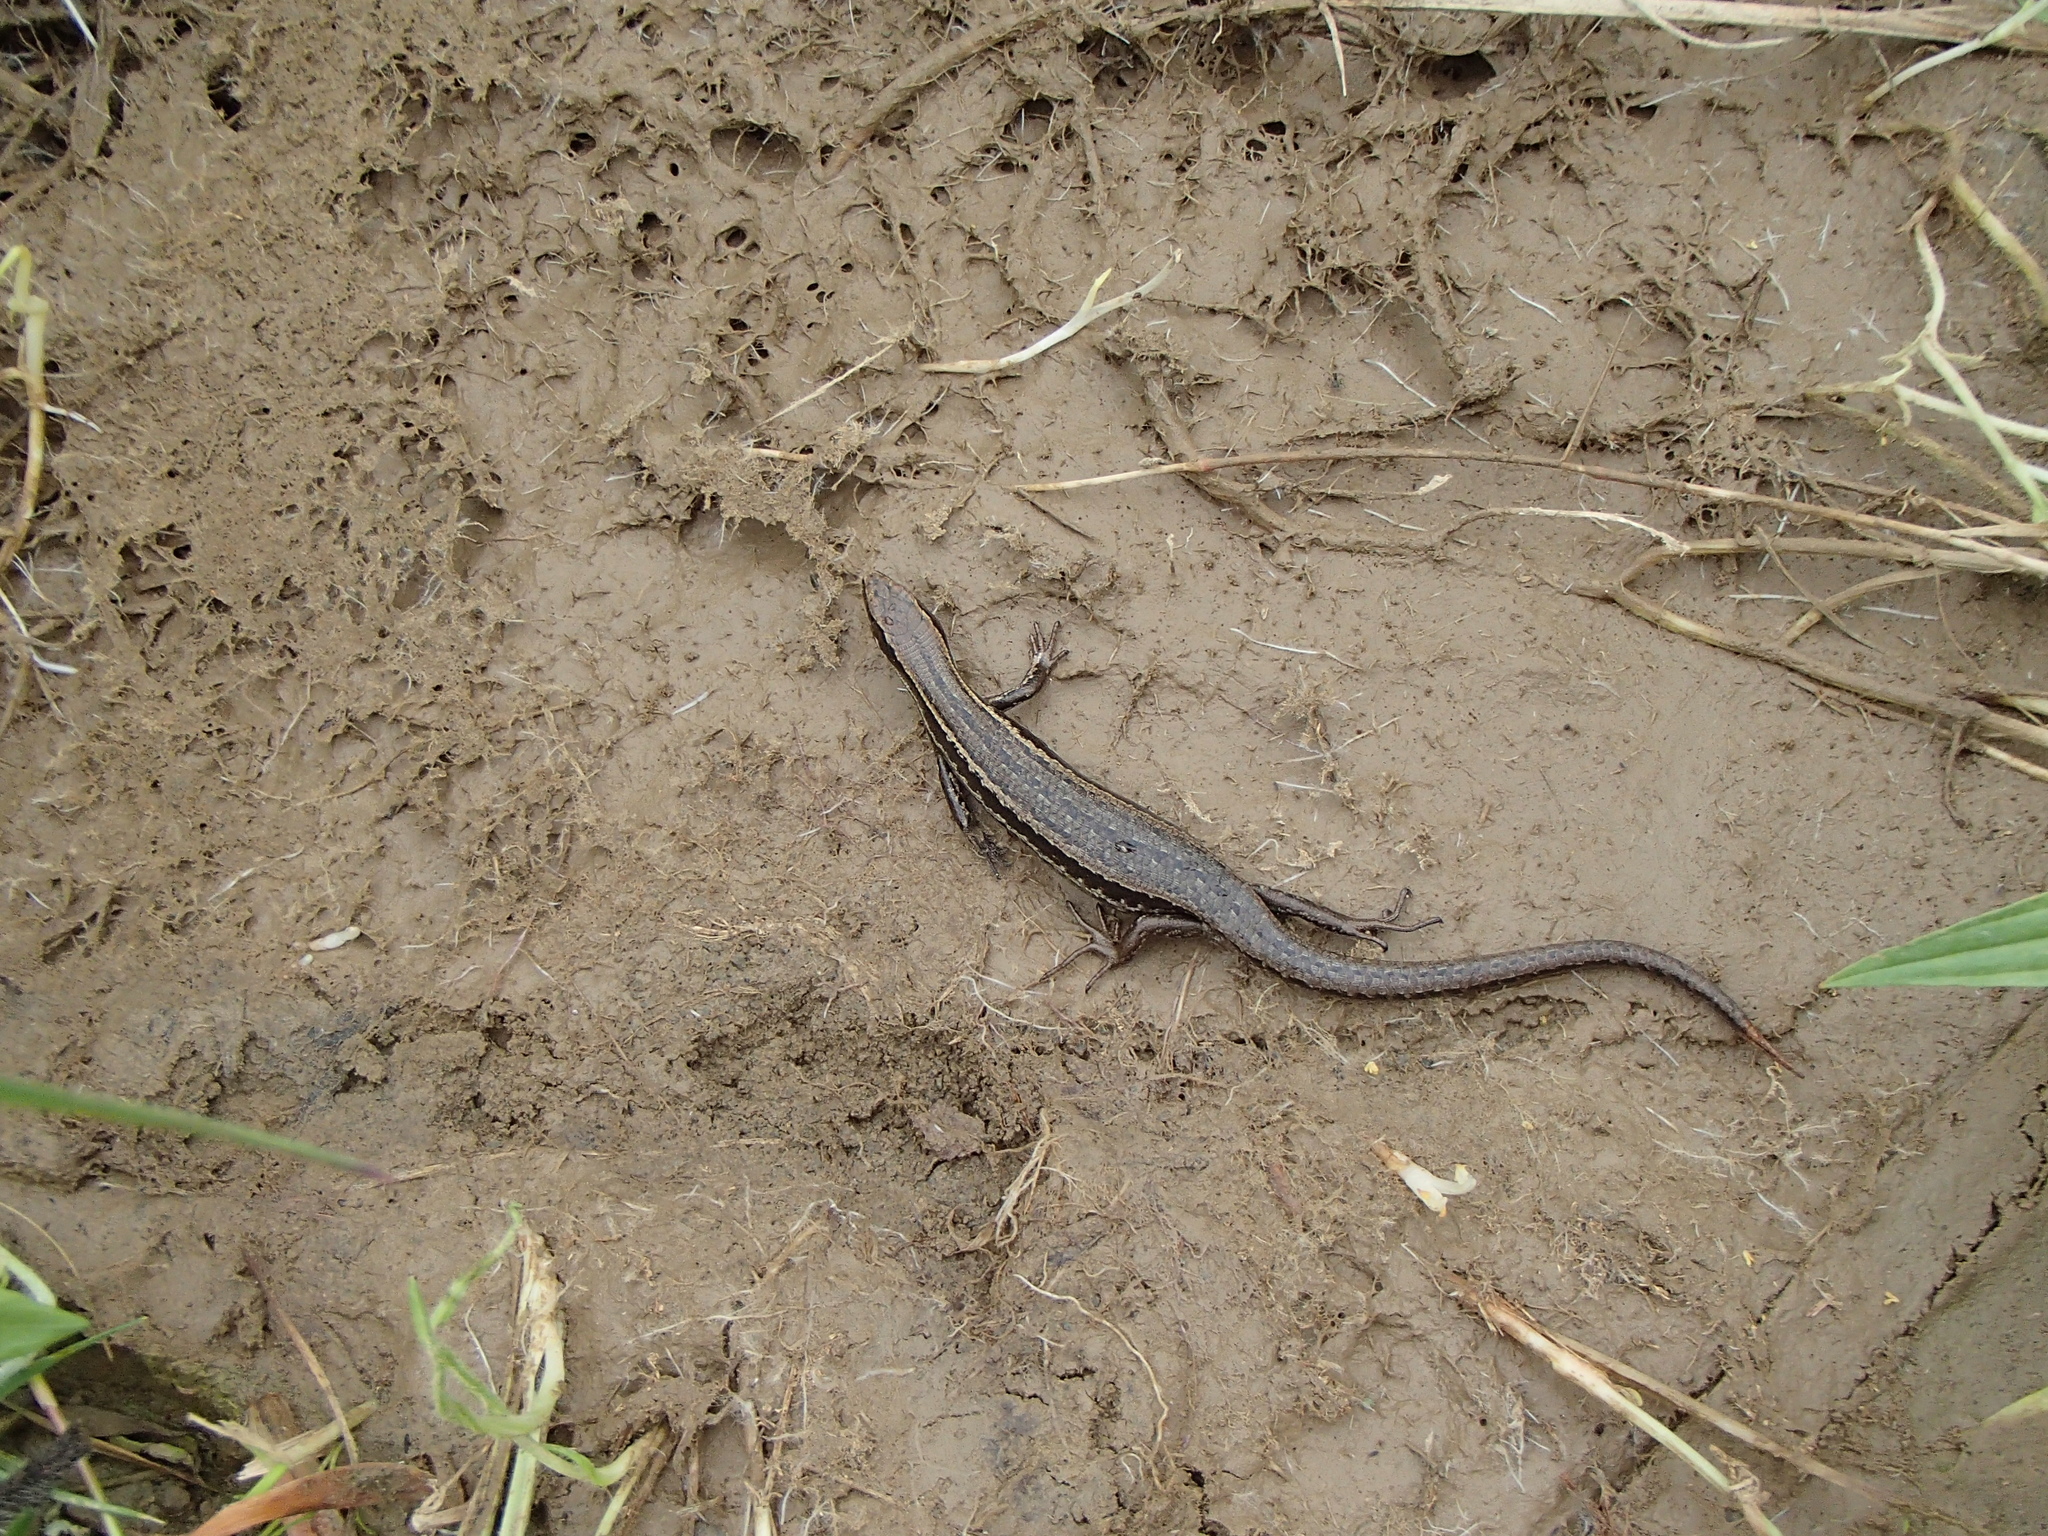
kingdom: Animalia
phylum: Chordata
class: Squamata
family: Scincidae
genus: Oligosoma
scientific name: Oligosoma polychroma
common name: Common new zealand skink
